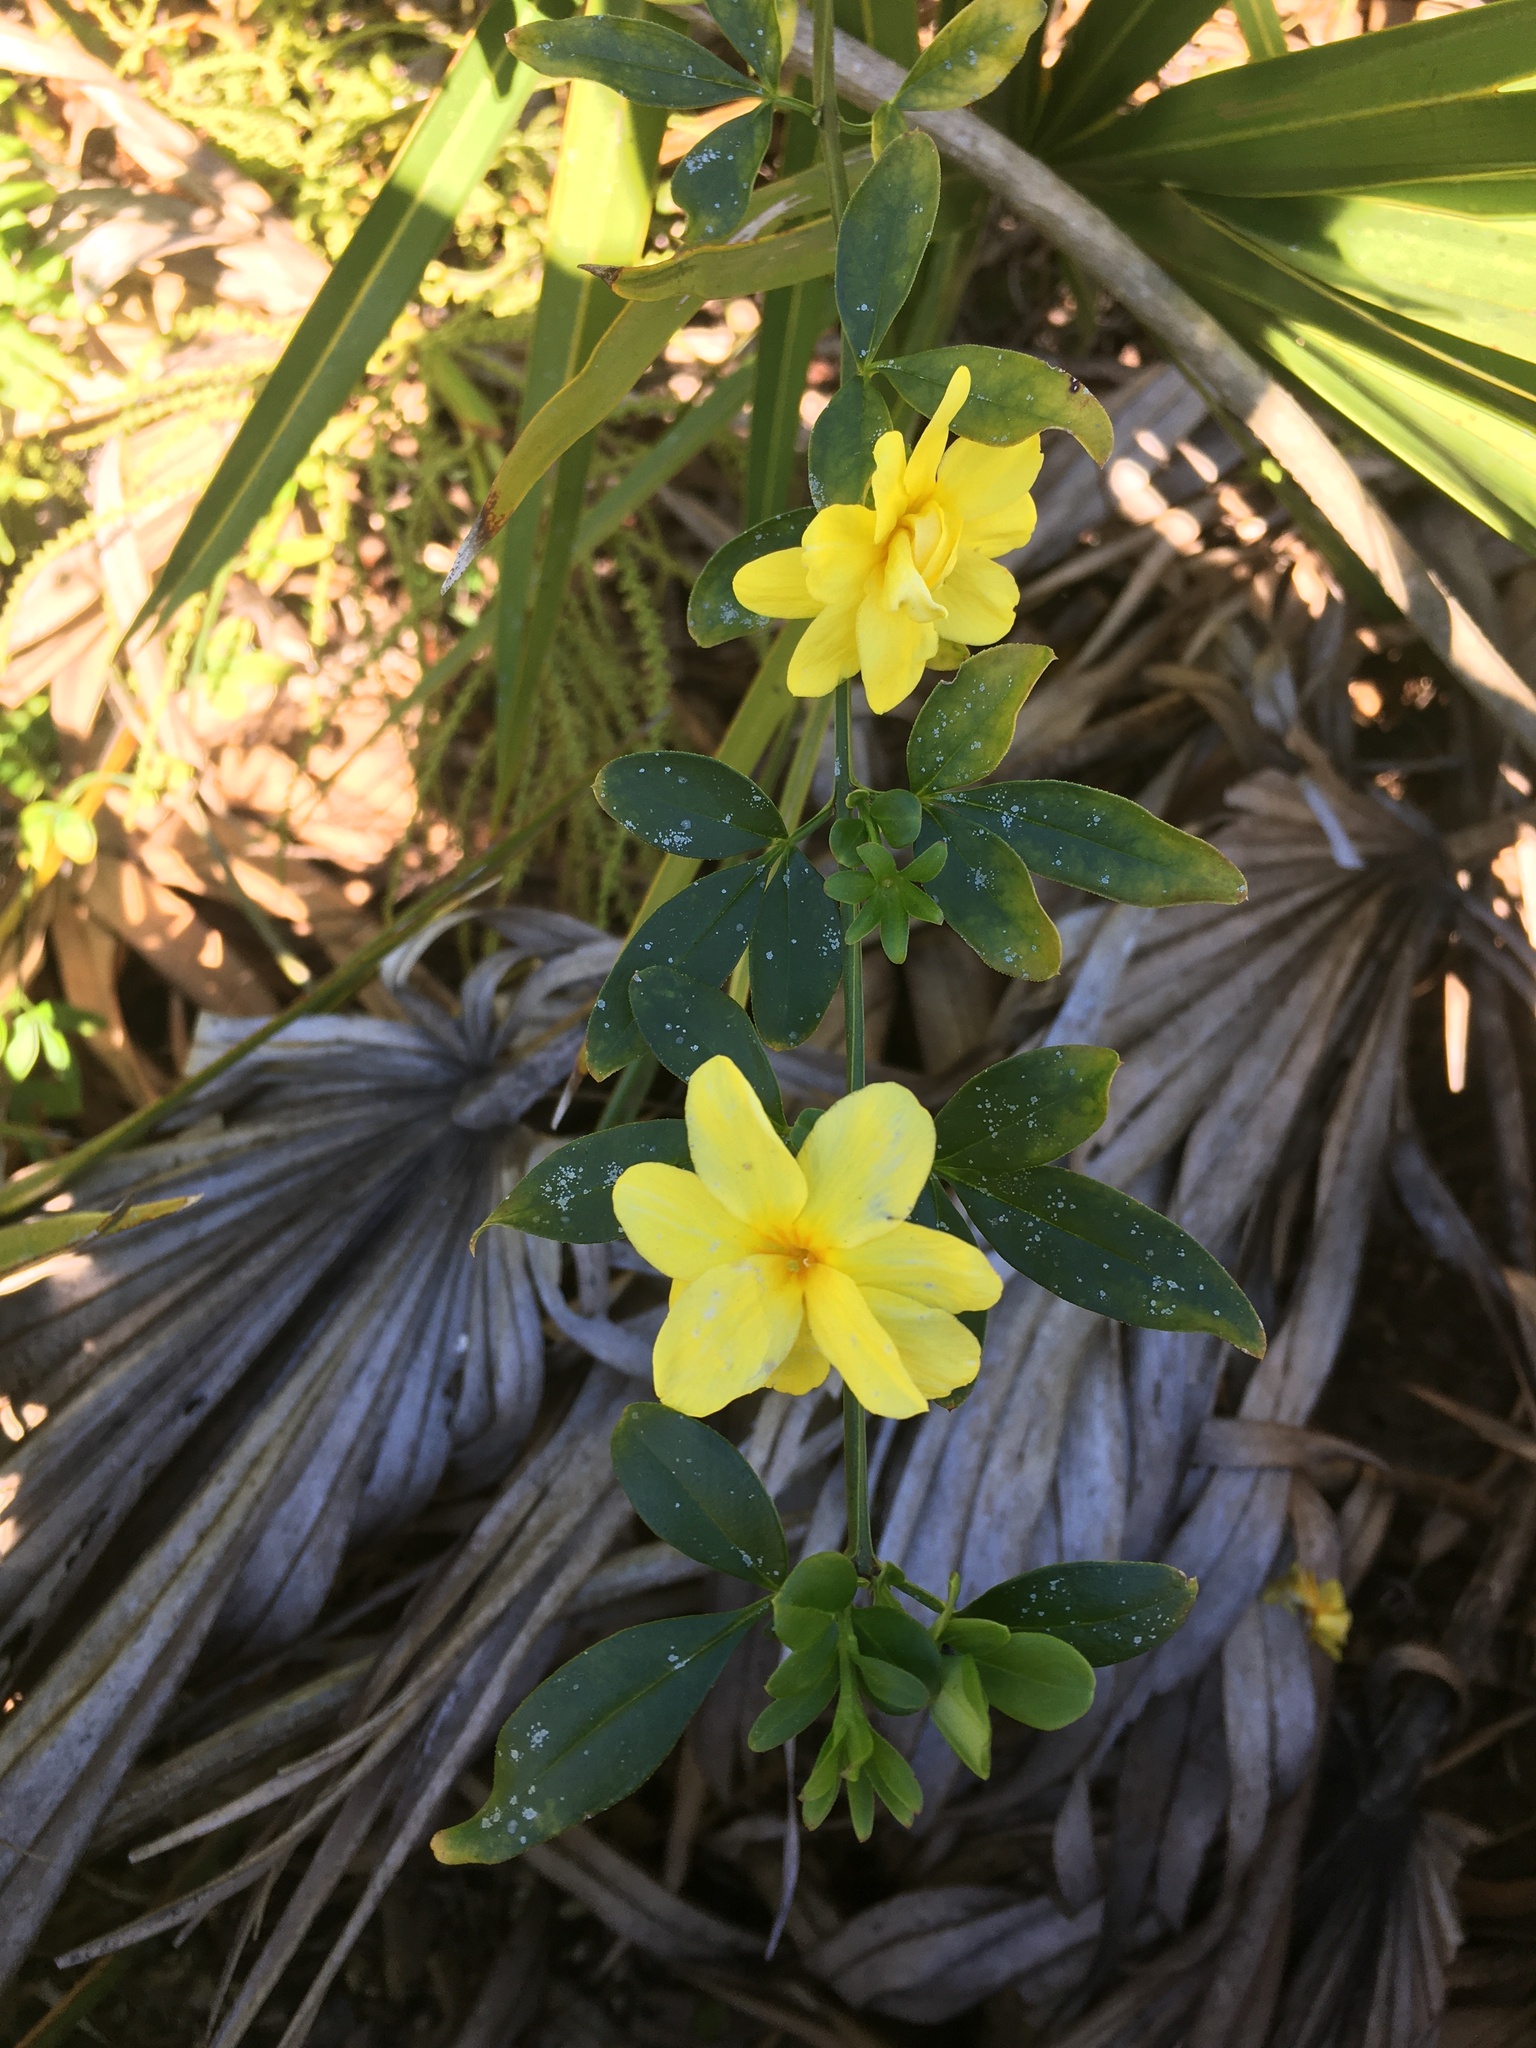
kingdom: Plantae
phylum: Tracheophyta
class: Magnoliopsida
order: Lamiales
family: Oleaceae
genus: Jasminum
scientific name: Jasminum mesnyi
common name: Japanese jasmine
